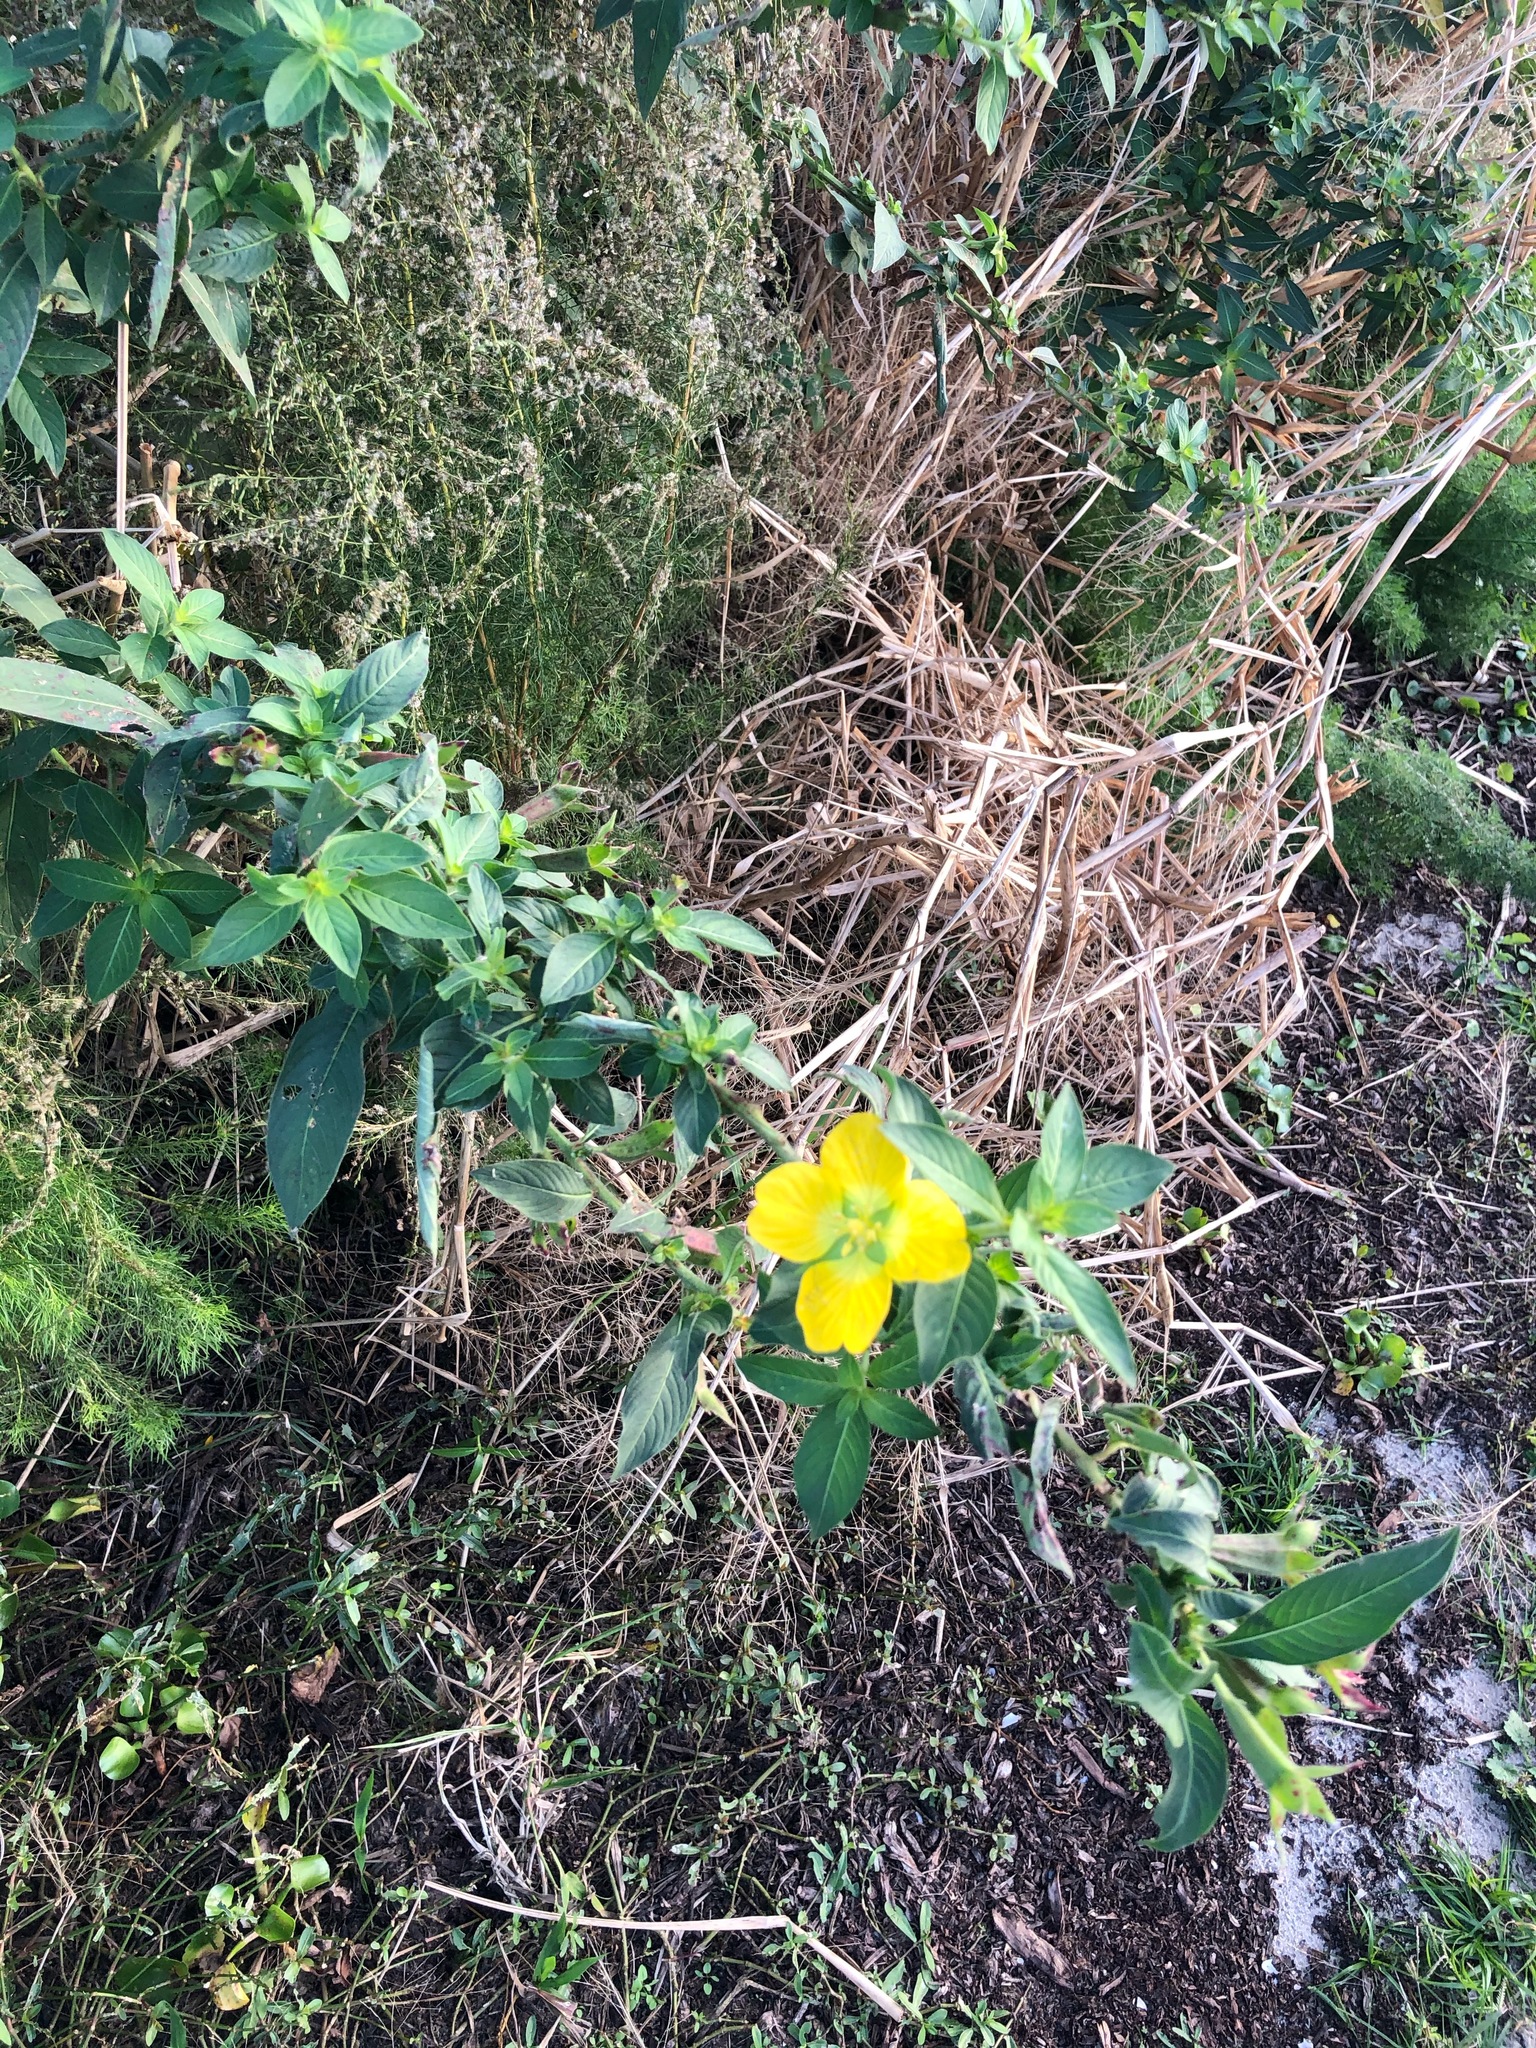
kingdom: Plantae
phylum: Tracheophyta
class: Magnoliopsida
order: Myrtales
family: Onagraceae
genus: Ludwigia
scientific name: Ludwigia peruviana
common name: Peruvian primrose-willow
